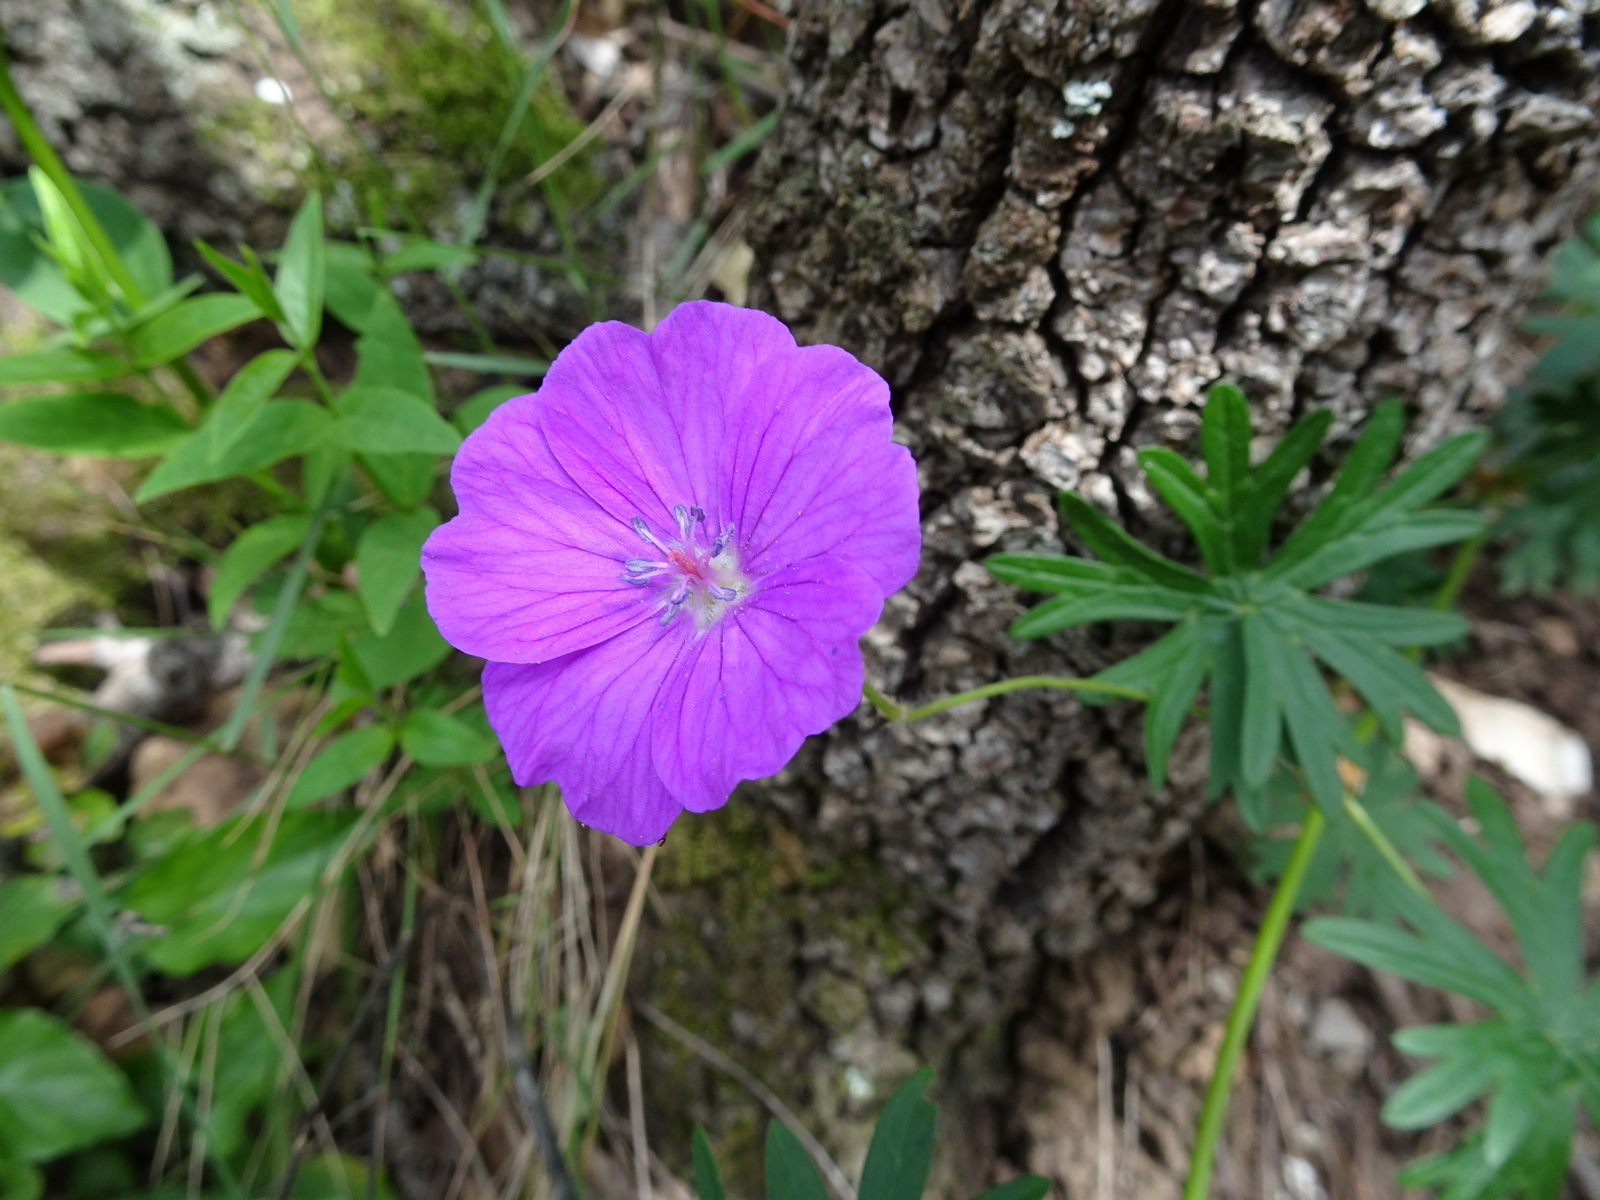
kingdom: Plantae
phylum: Tracheophyta
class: Magnoliopsida
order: Geraniales
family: Geraniaceae
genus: Geranium
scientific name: Geranium sanguineum
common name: Bloody crane's-bill
